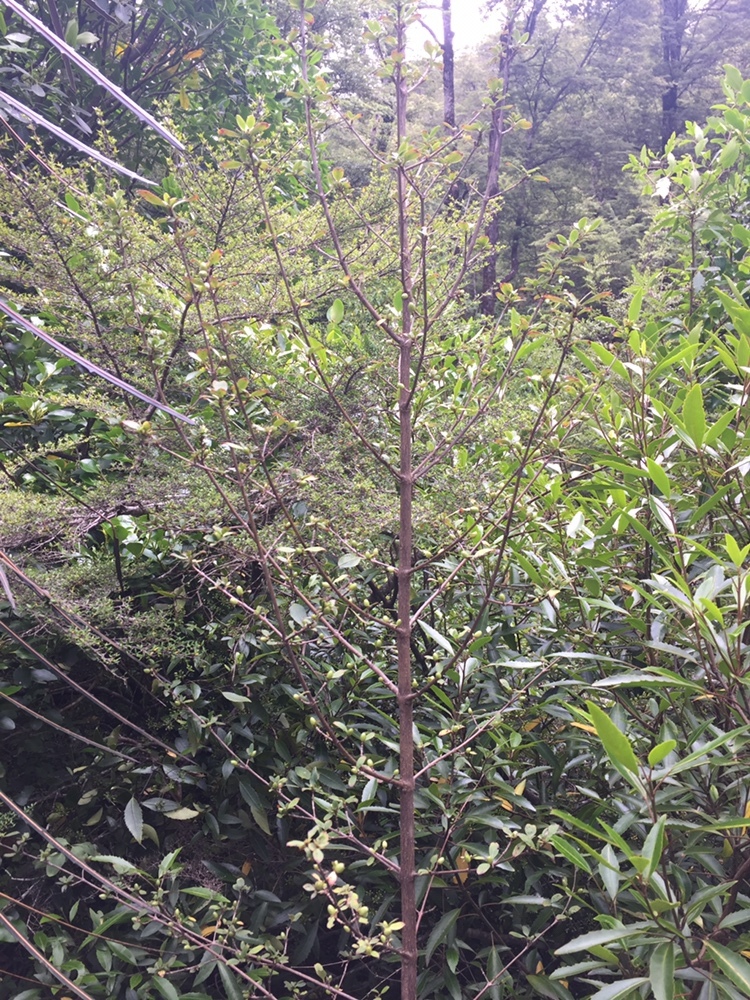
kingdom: Plantae
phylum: Tracheophyta
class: Magnoliopsida
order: Gentianales
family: Rubiaceae
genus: Coprosma
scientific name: Coprosma foetidissima
